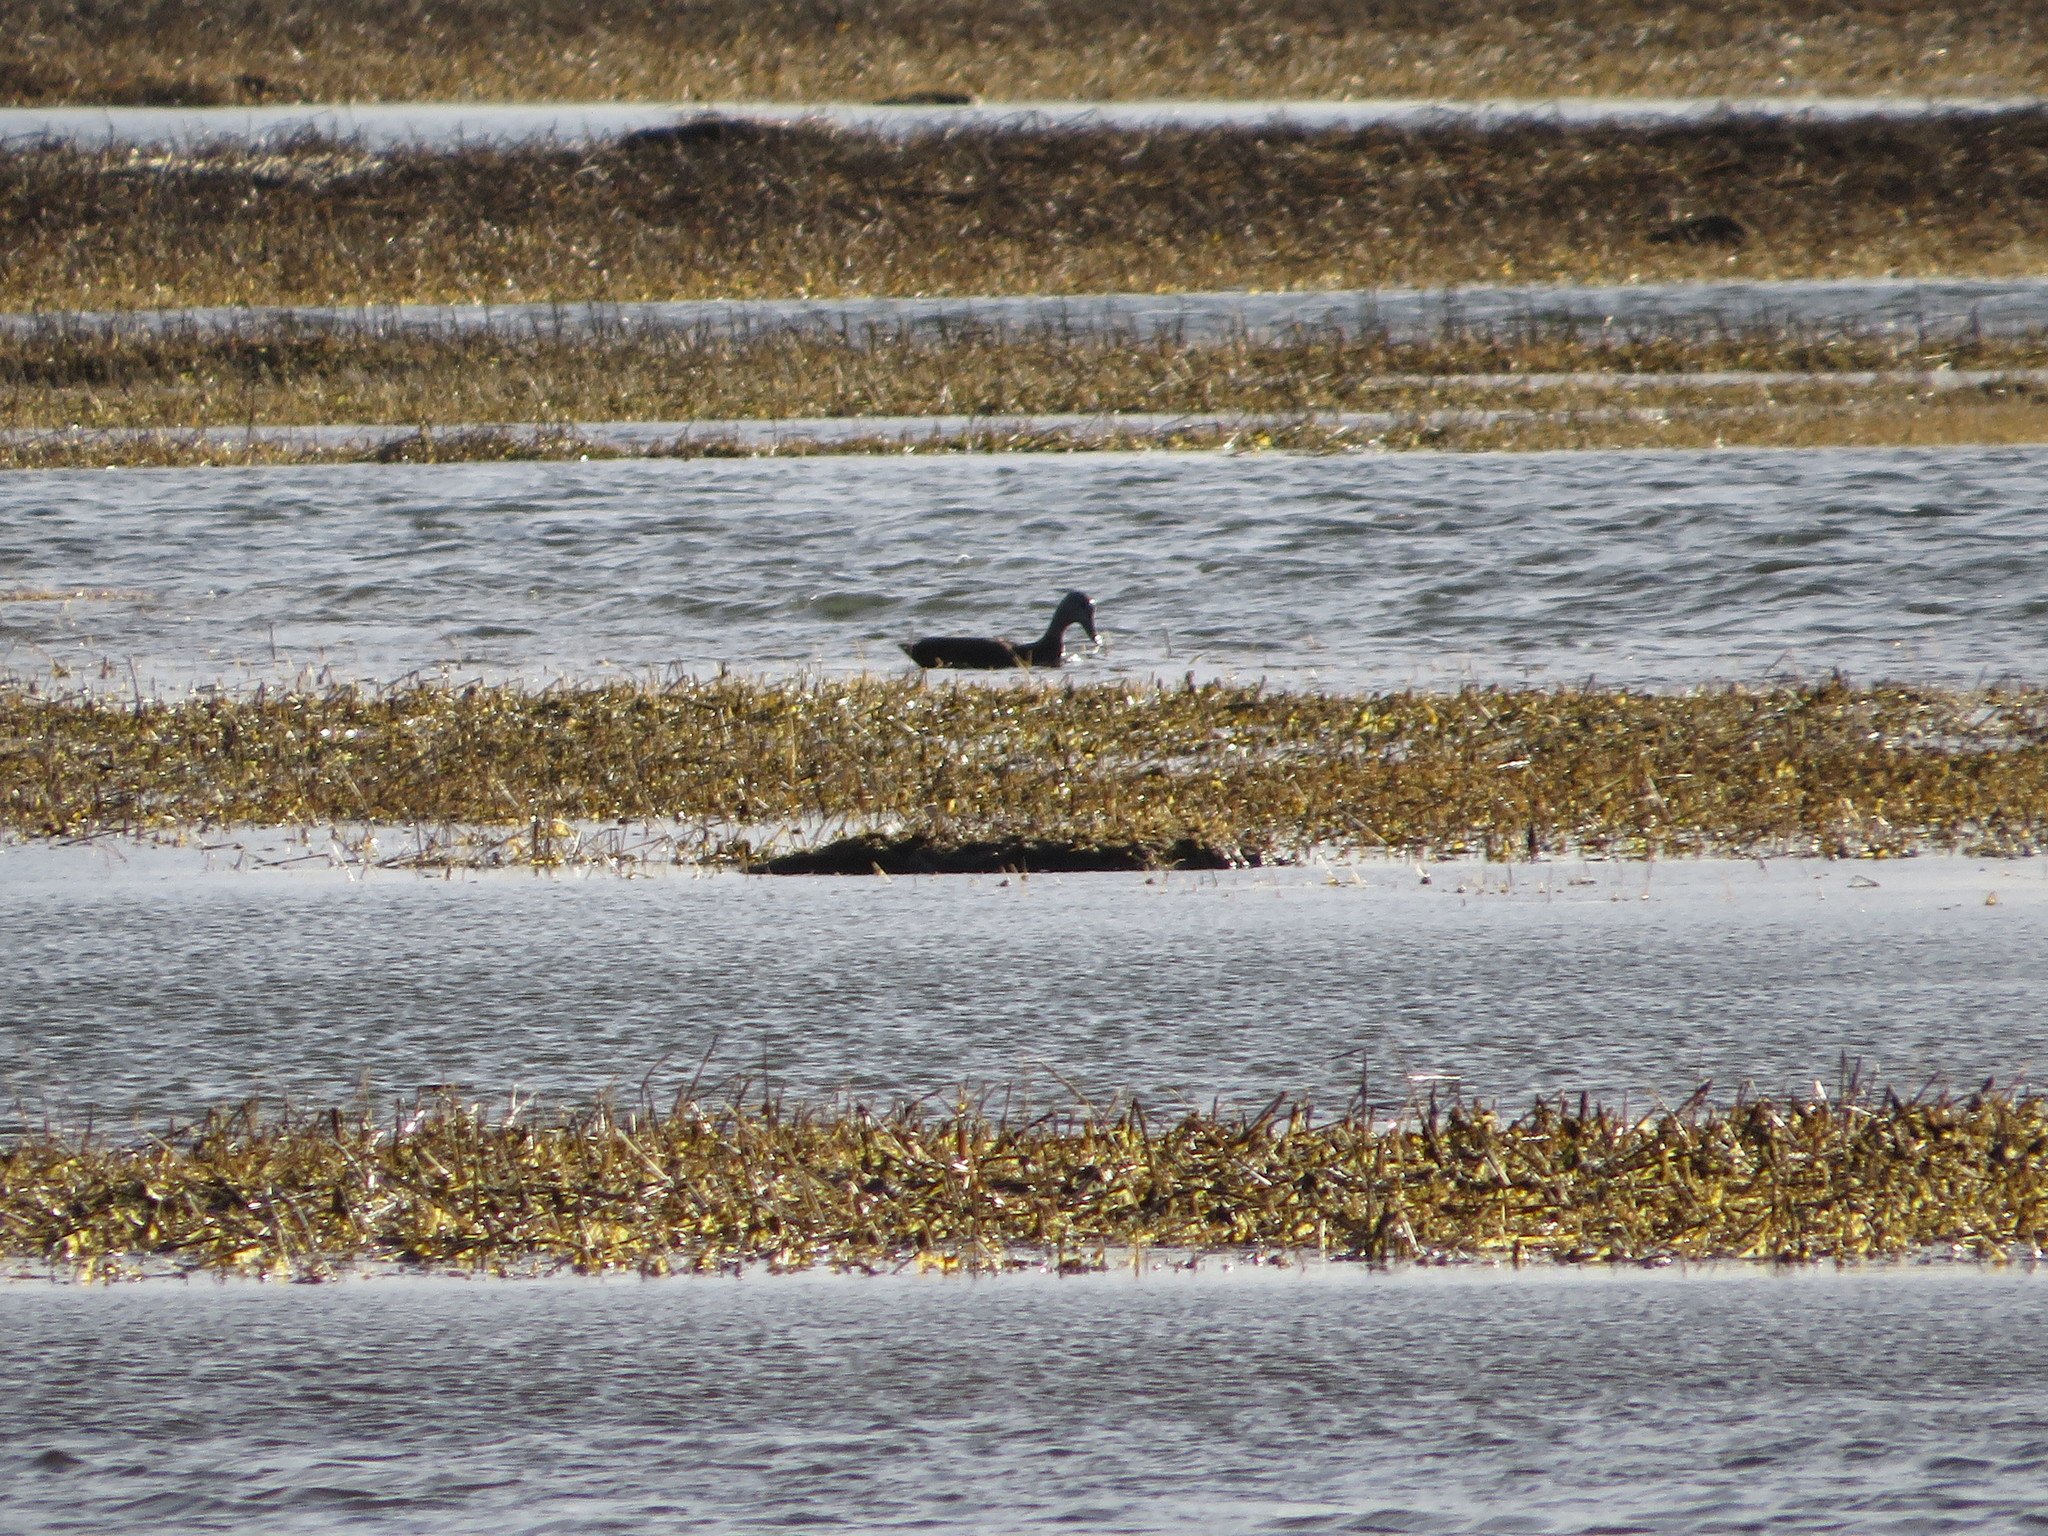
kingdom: Animalia
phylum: Chordata
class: Aves
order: Anseriformes
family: Anatidae
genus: Anas
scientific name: Anas rubripes
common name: American black duck
